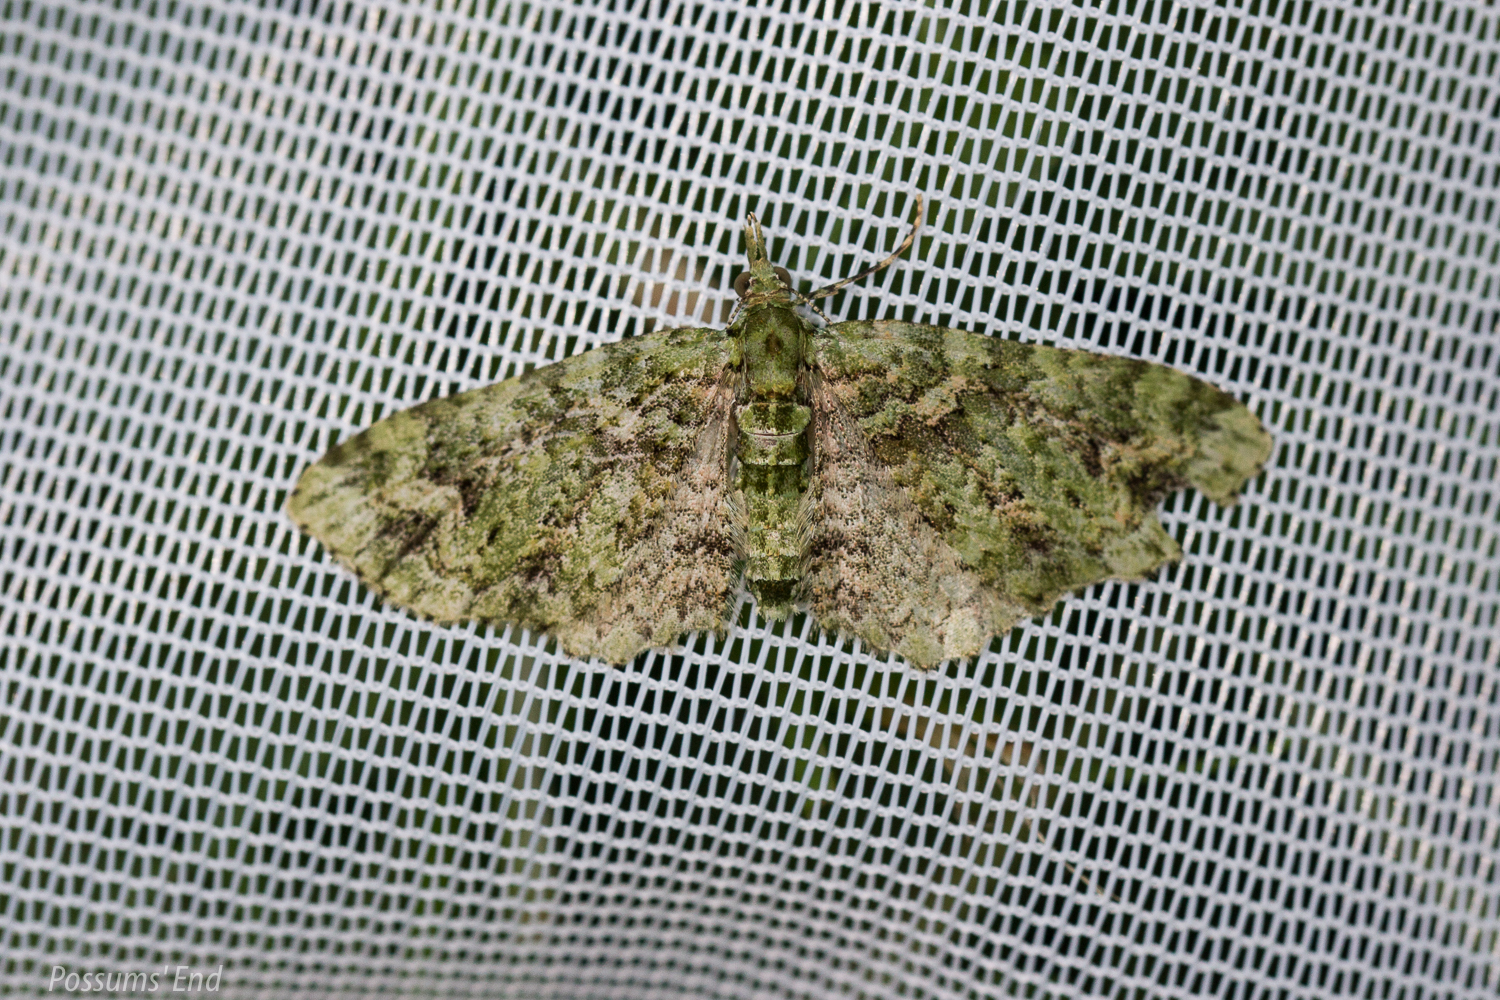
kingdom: Animalia
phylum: Arthropoda
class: Insecta
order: Lepidoptera
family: Geometridae
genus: Pasiphila
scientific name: Pasiphila muscosata
